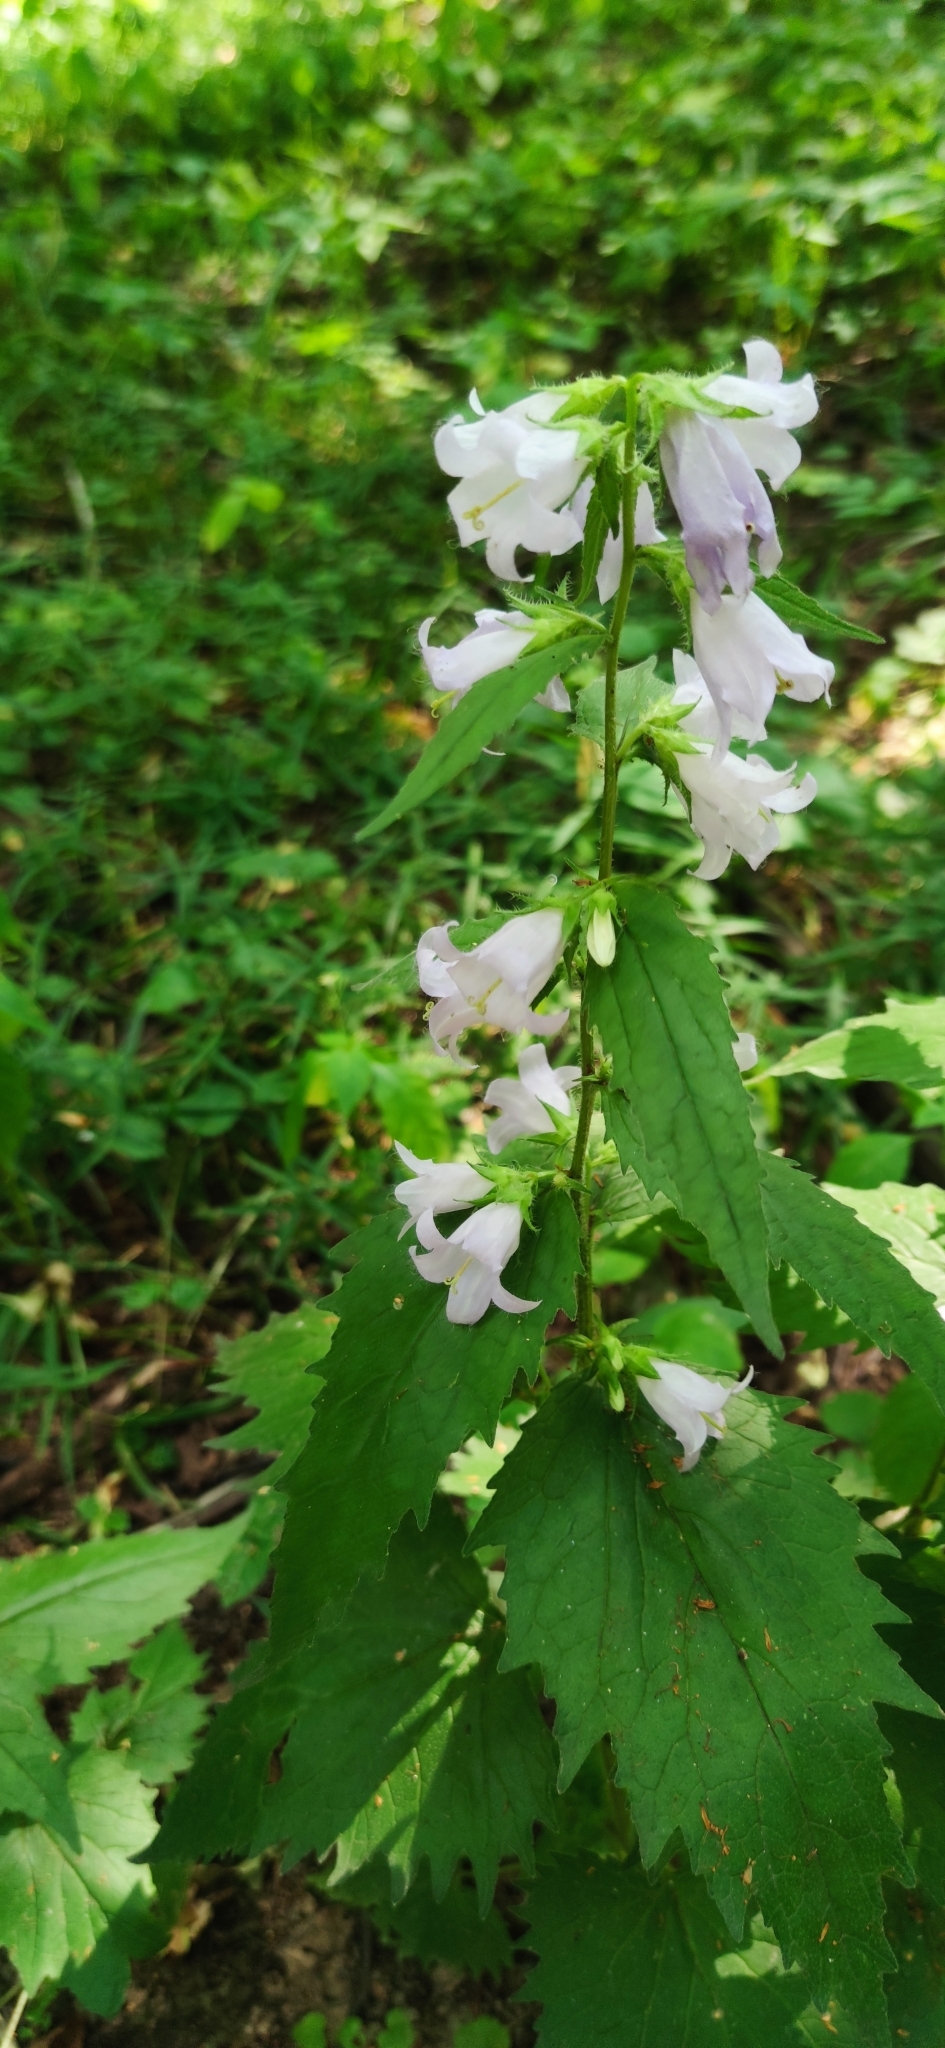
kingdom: Plantae
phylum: Tracheophyta
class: Magnoliopsida
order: Asterales
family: Campanulaceae
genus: Campanula
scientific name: Campanula trachelium
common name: Nettle-leaved bellflower
